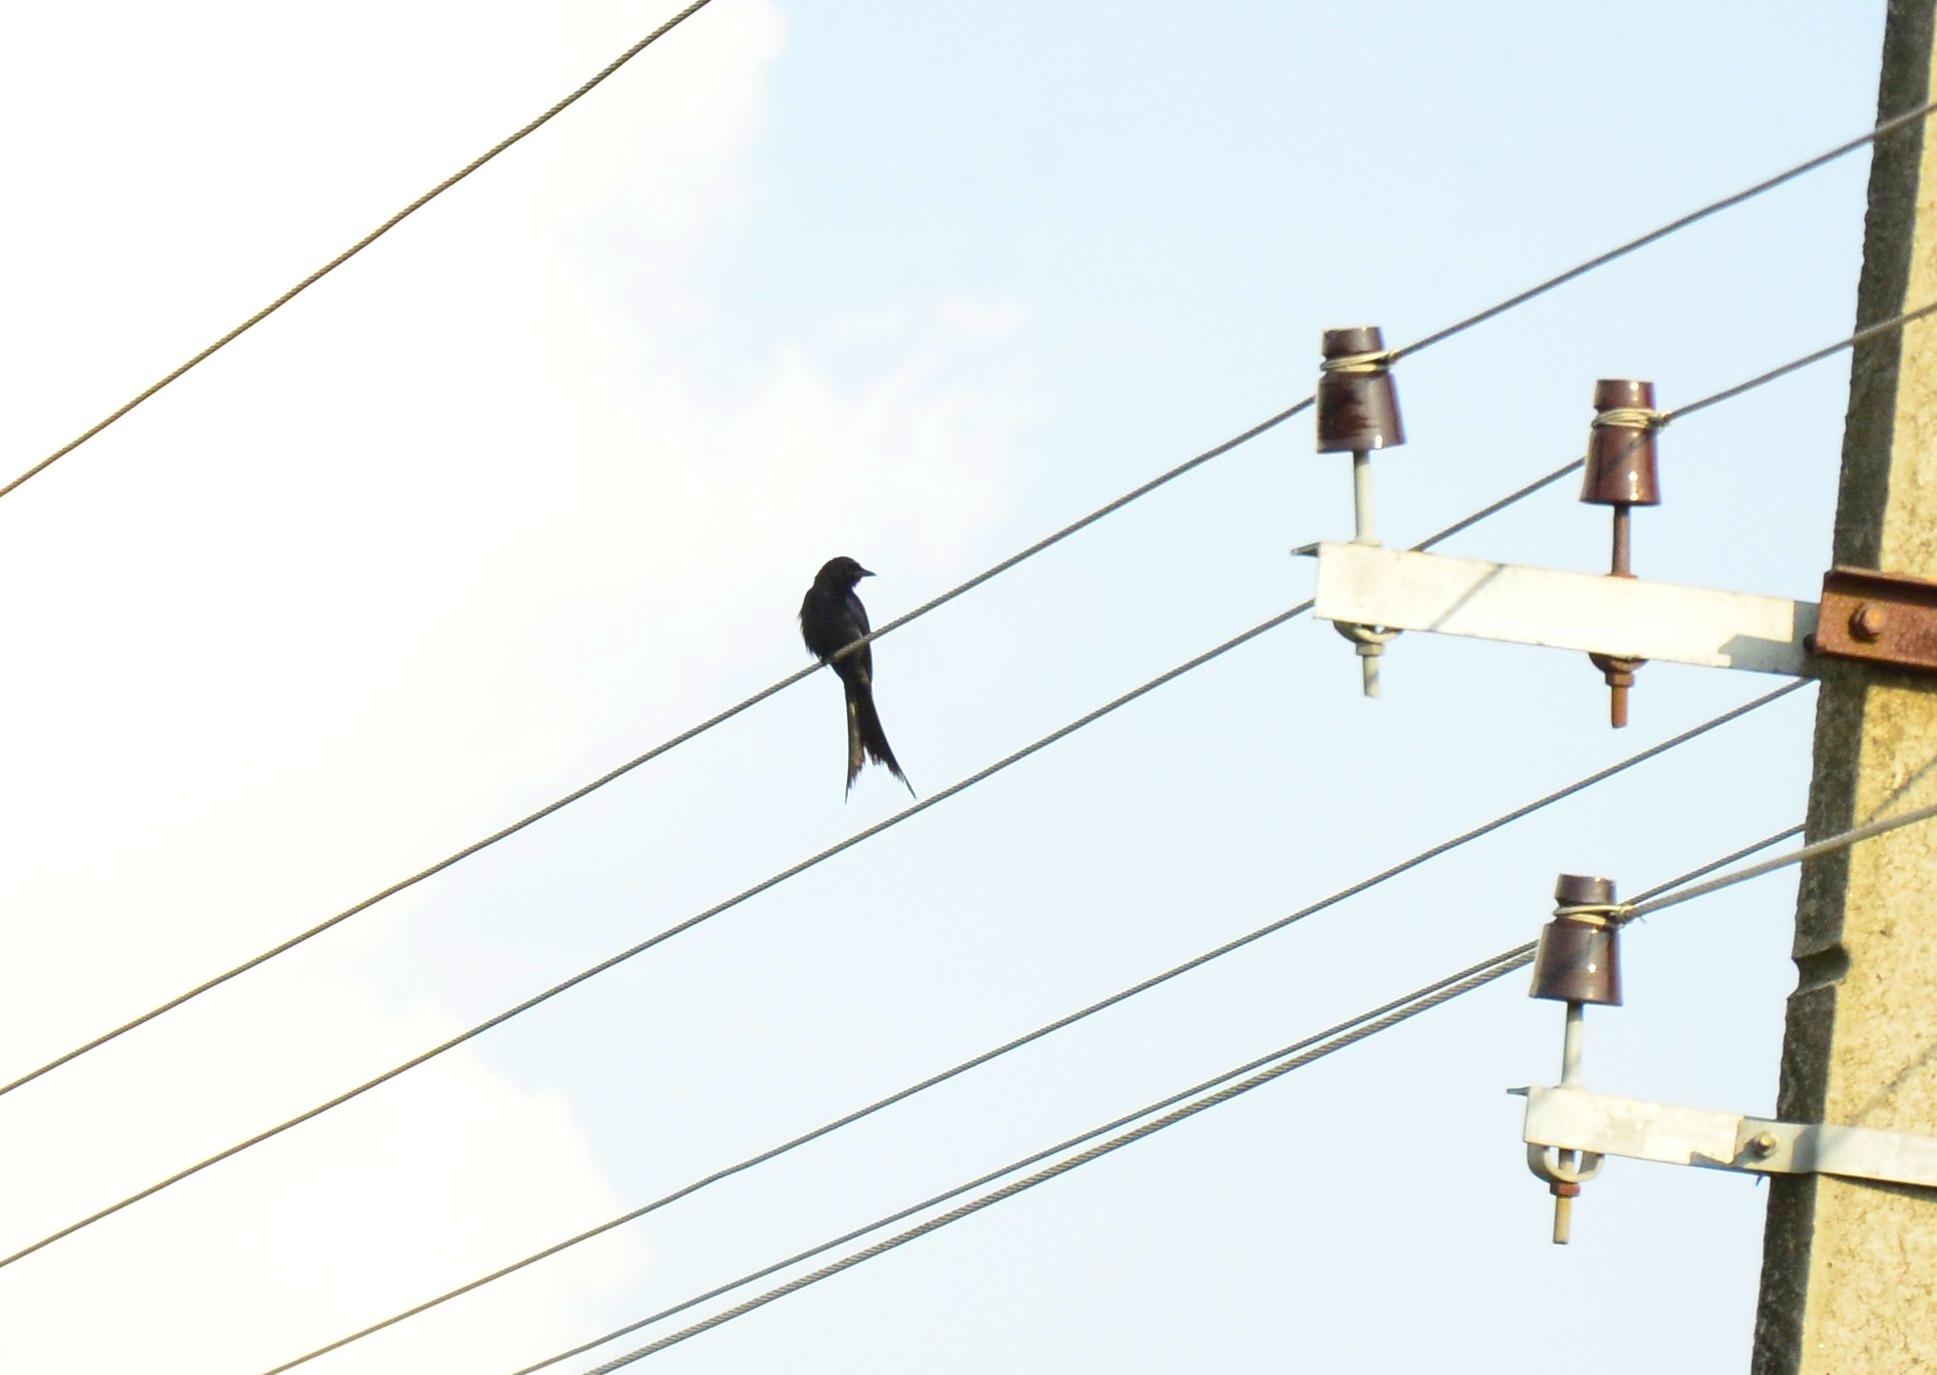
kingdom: Animalia
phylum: Chordata
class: Aves
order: Passeriformes
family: Dicruridae
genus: Dicrurus
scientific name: Dicrurus macrocercus
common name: Black drongo
